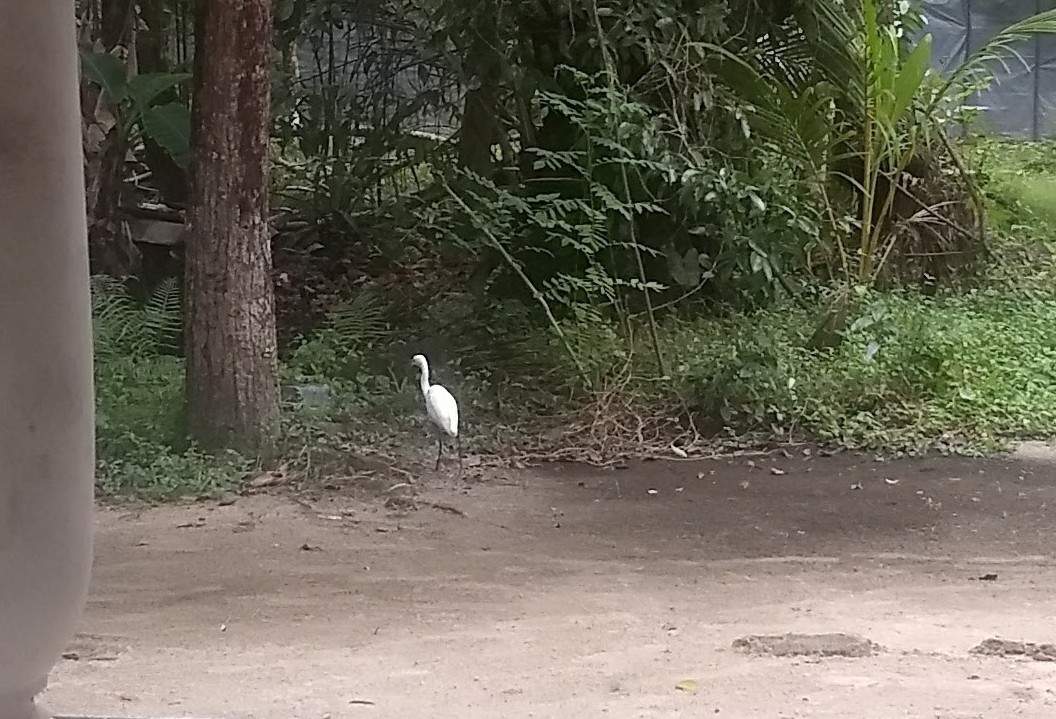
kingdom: Animalia
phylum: Chordata
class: Aves
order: Pelecaniformes
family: Ardeidae
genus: Egretta
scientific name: Egretta garzetta
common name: Little egret
